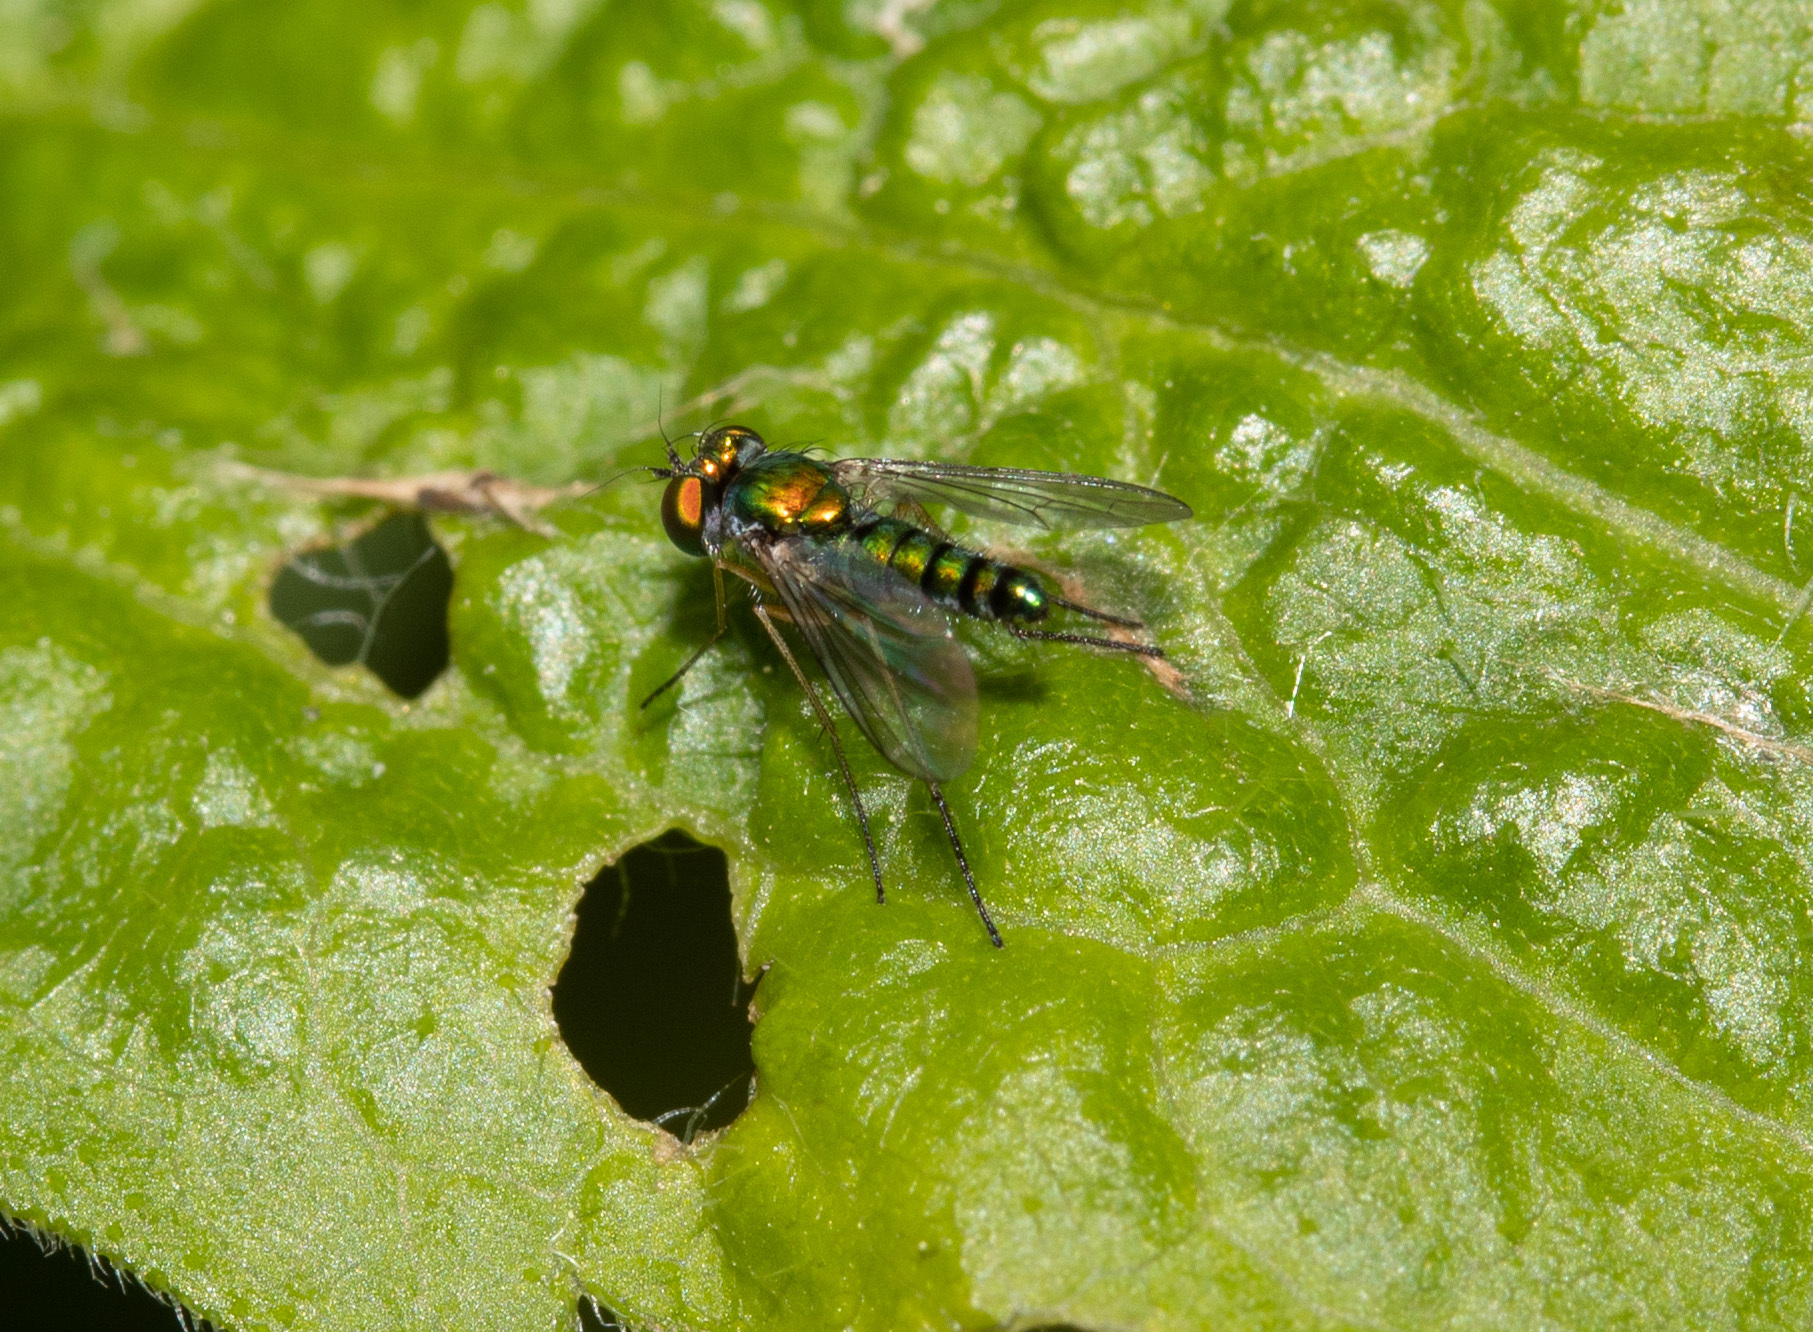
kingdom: Animalia
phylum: Arthropoda
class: Insecta
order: Diptera
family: Dolichopodidae
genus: Condylostylus
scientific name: Condylostylus connectans
